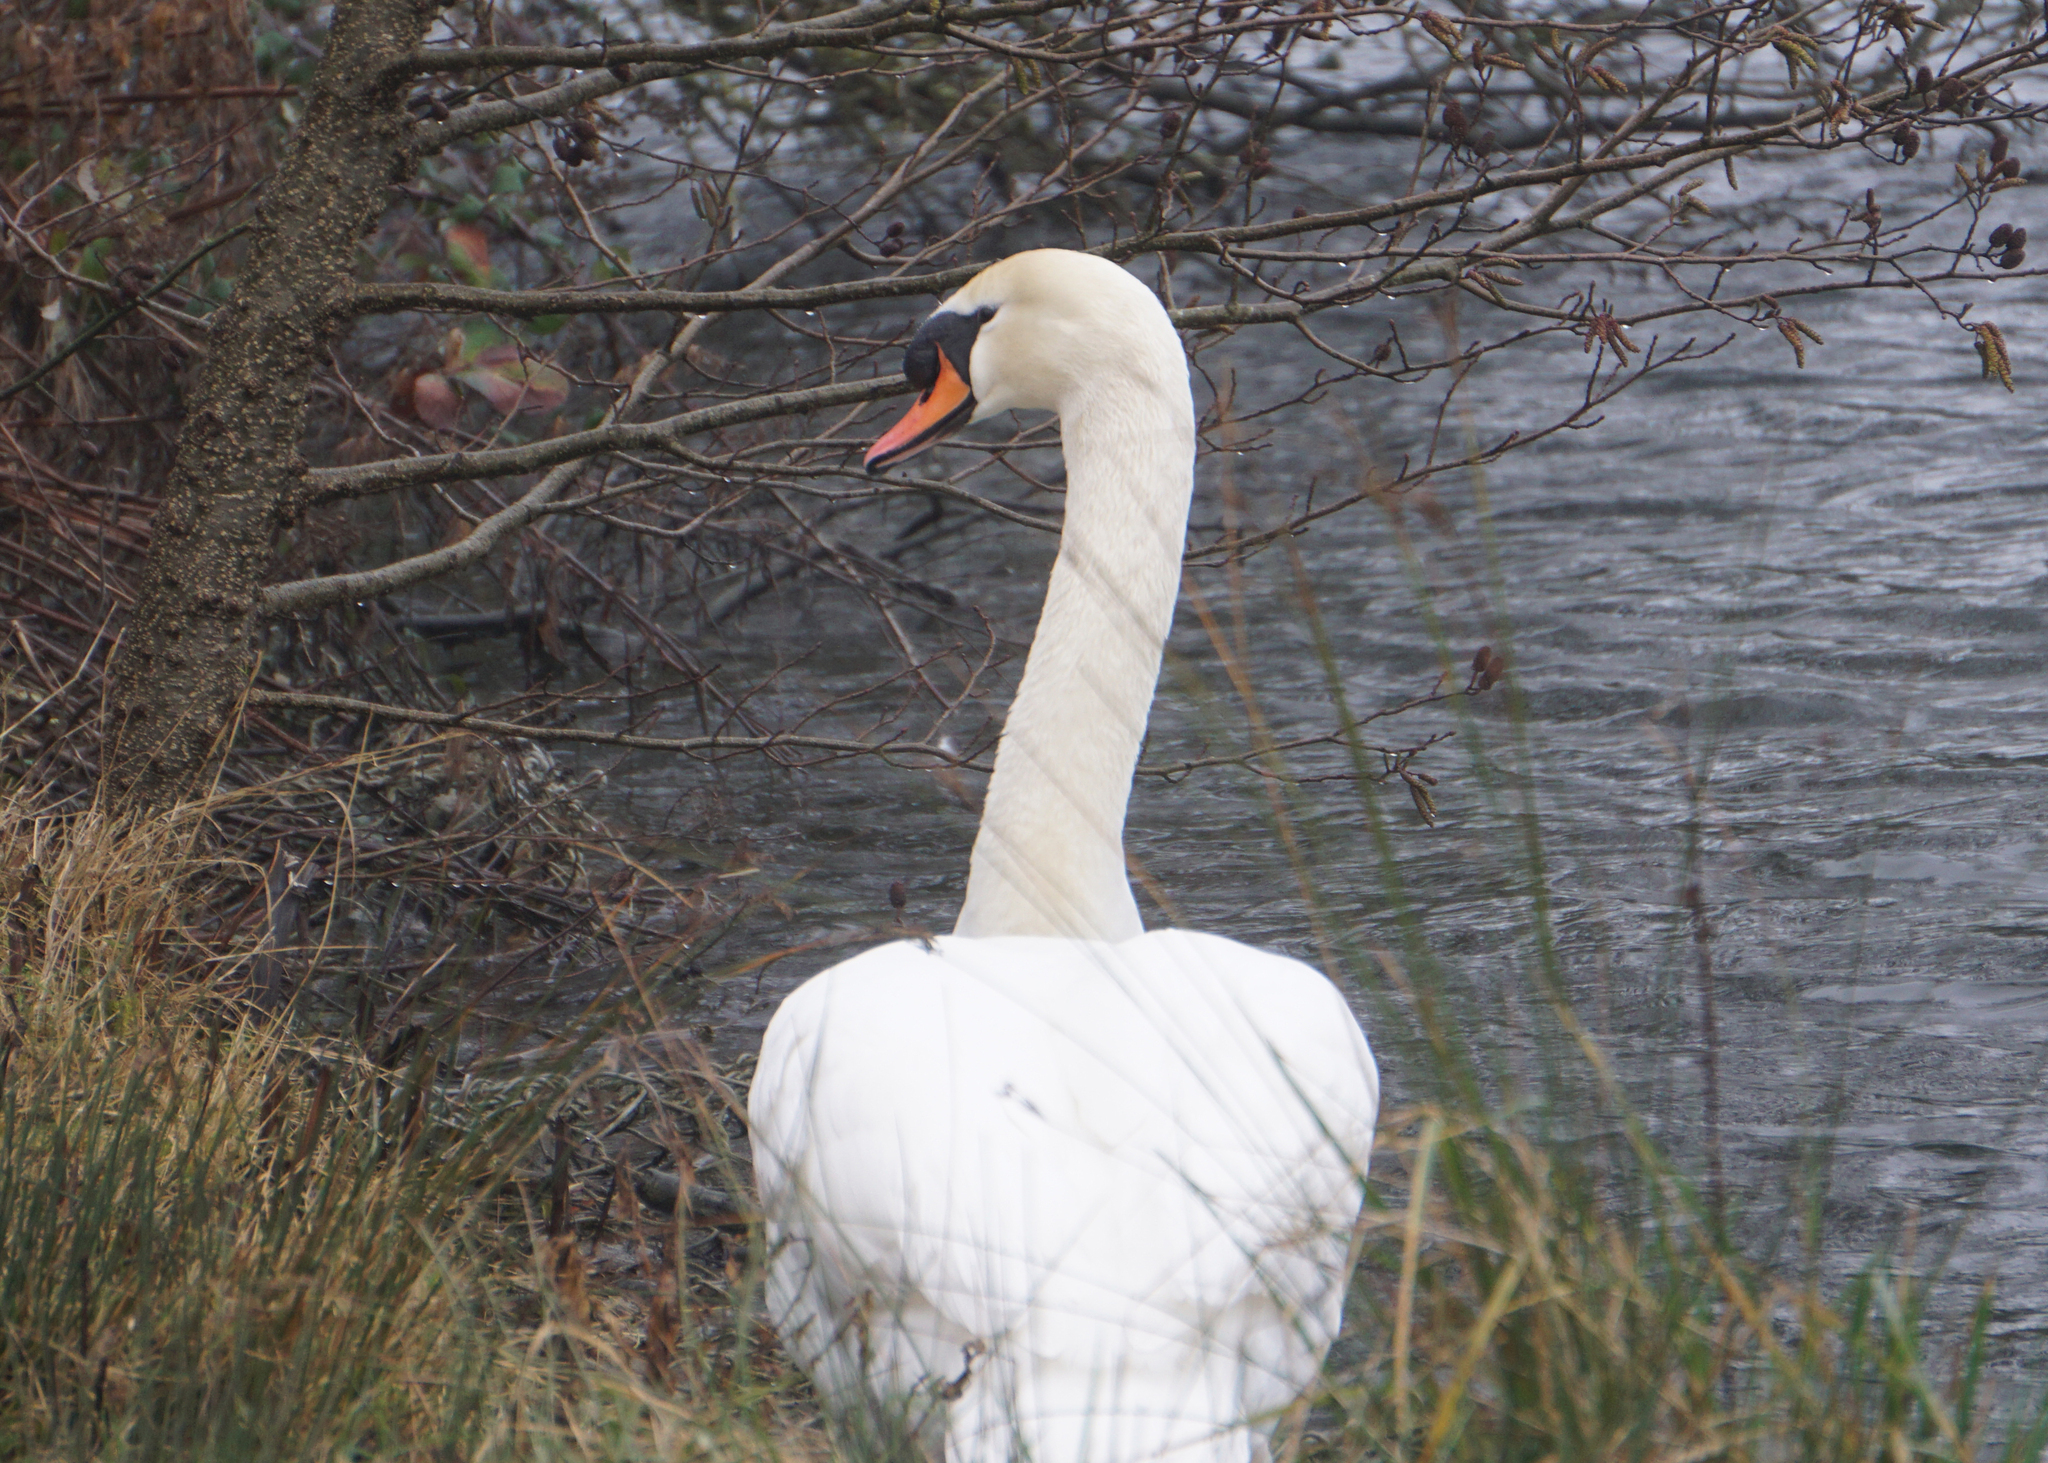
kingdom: Animalia
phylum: Chordata
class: Aves
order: Anseriformes
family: Anatidae
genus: Cygnus
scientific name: Cygnus olor
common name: Mute swan
